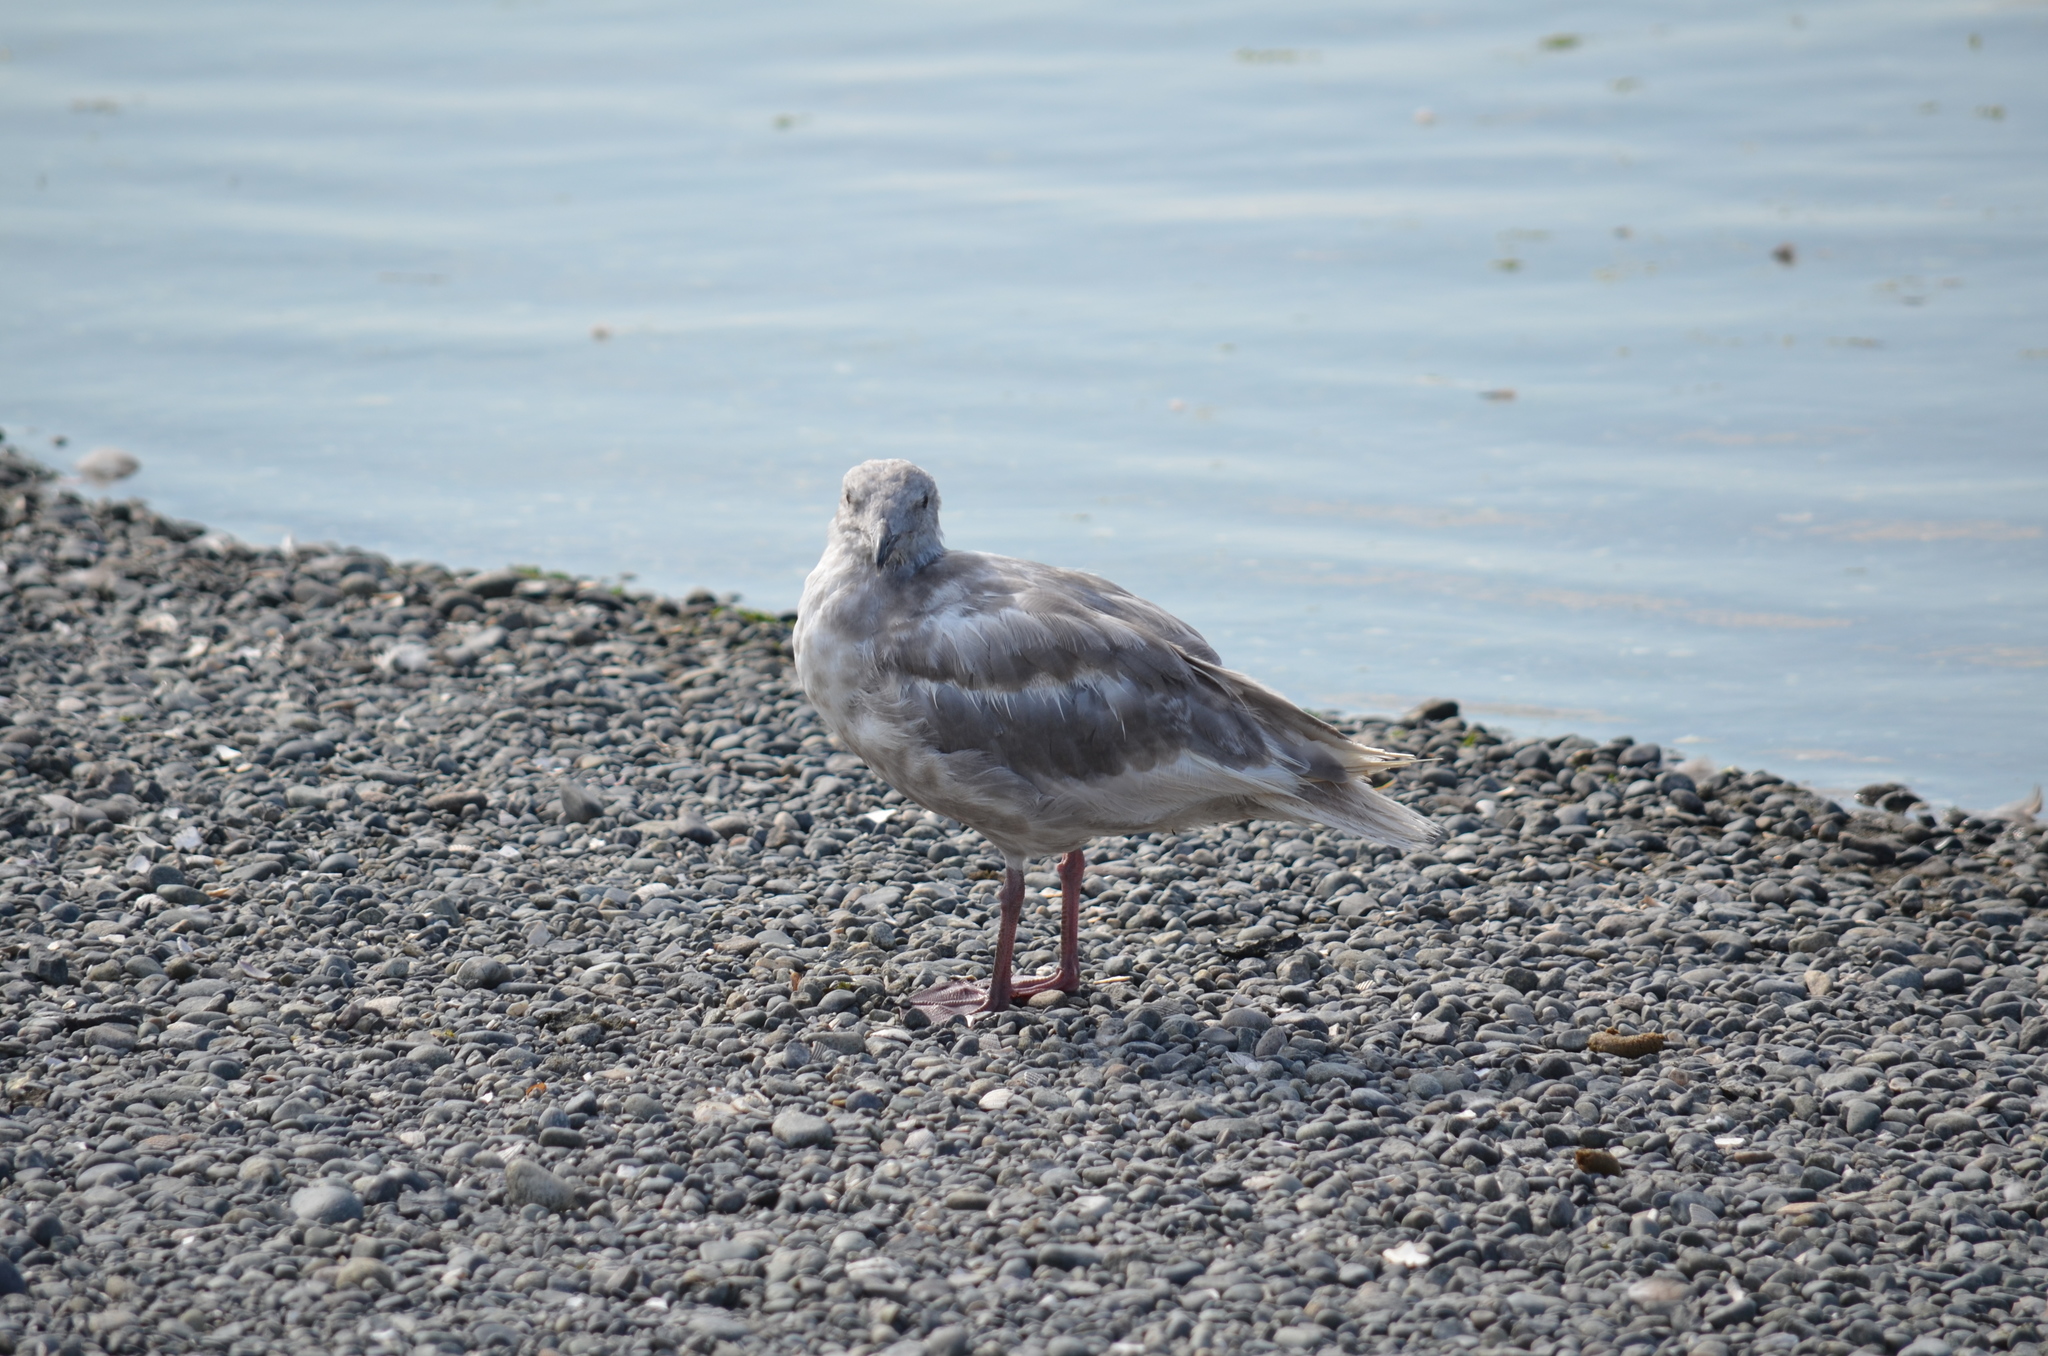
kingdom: Animalia
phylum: Chordata
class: Aves
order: Charadriiformes
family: Laridae
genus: Larus
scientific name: Larus
